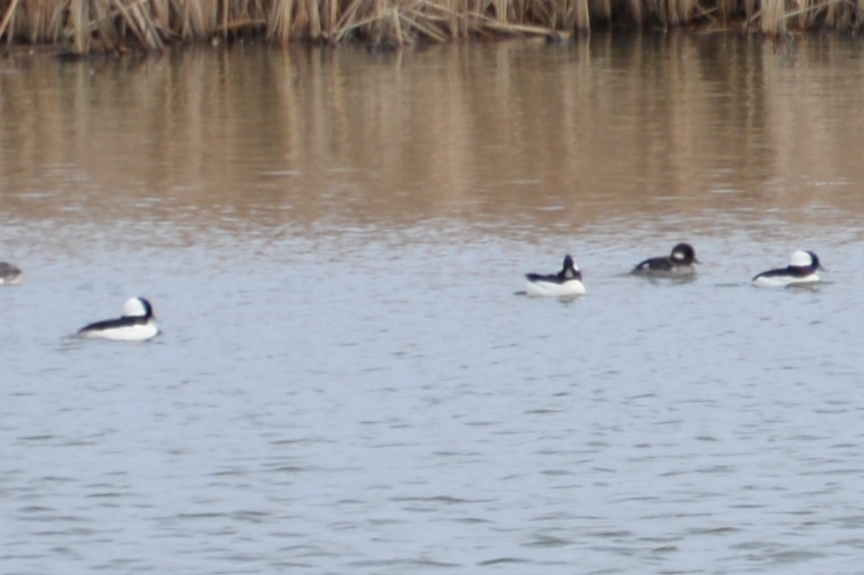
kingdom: Animalia
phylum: Chordata
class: Aves
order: Anseriformes
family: Anatidae
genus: Bucephala
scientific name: Bucephala albeola
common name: Bufflehead
